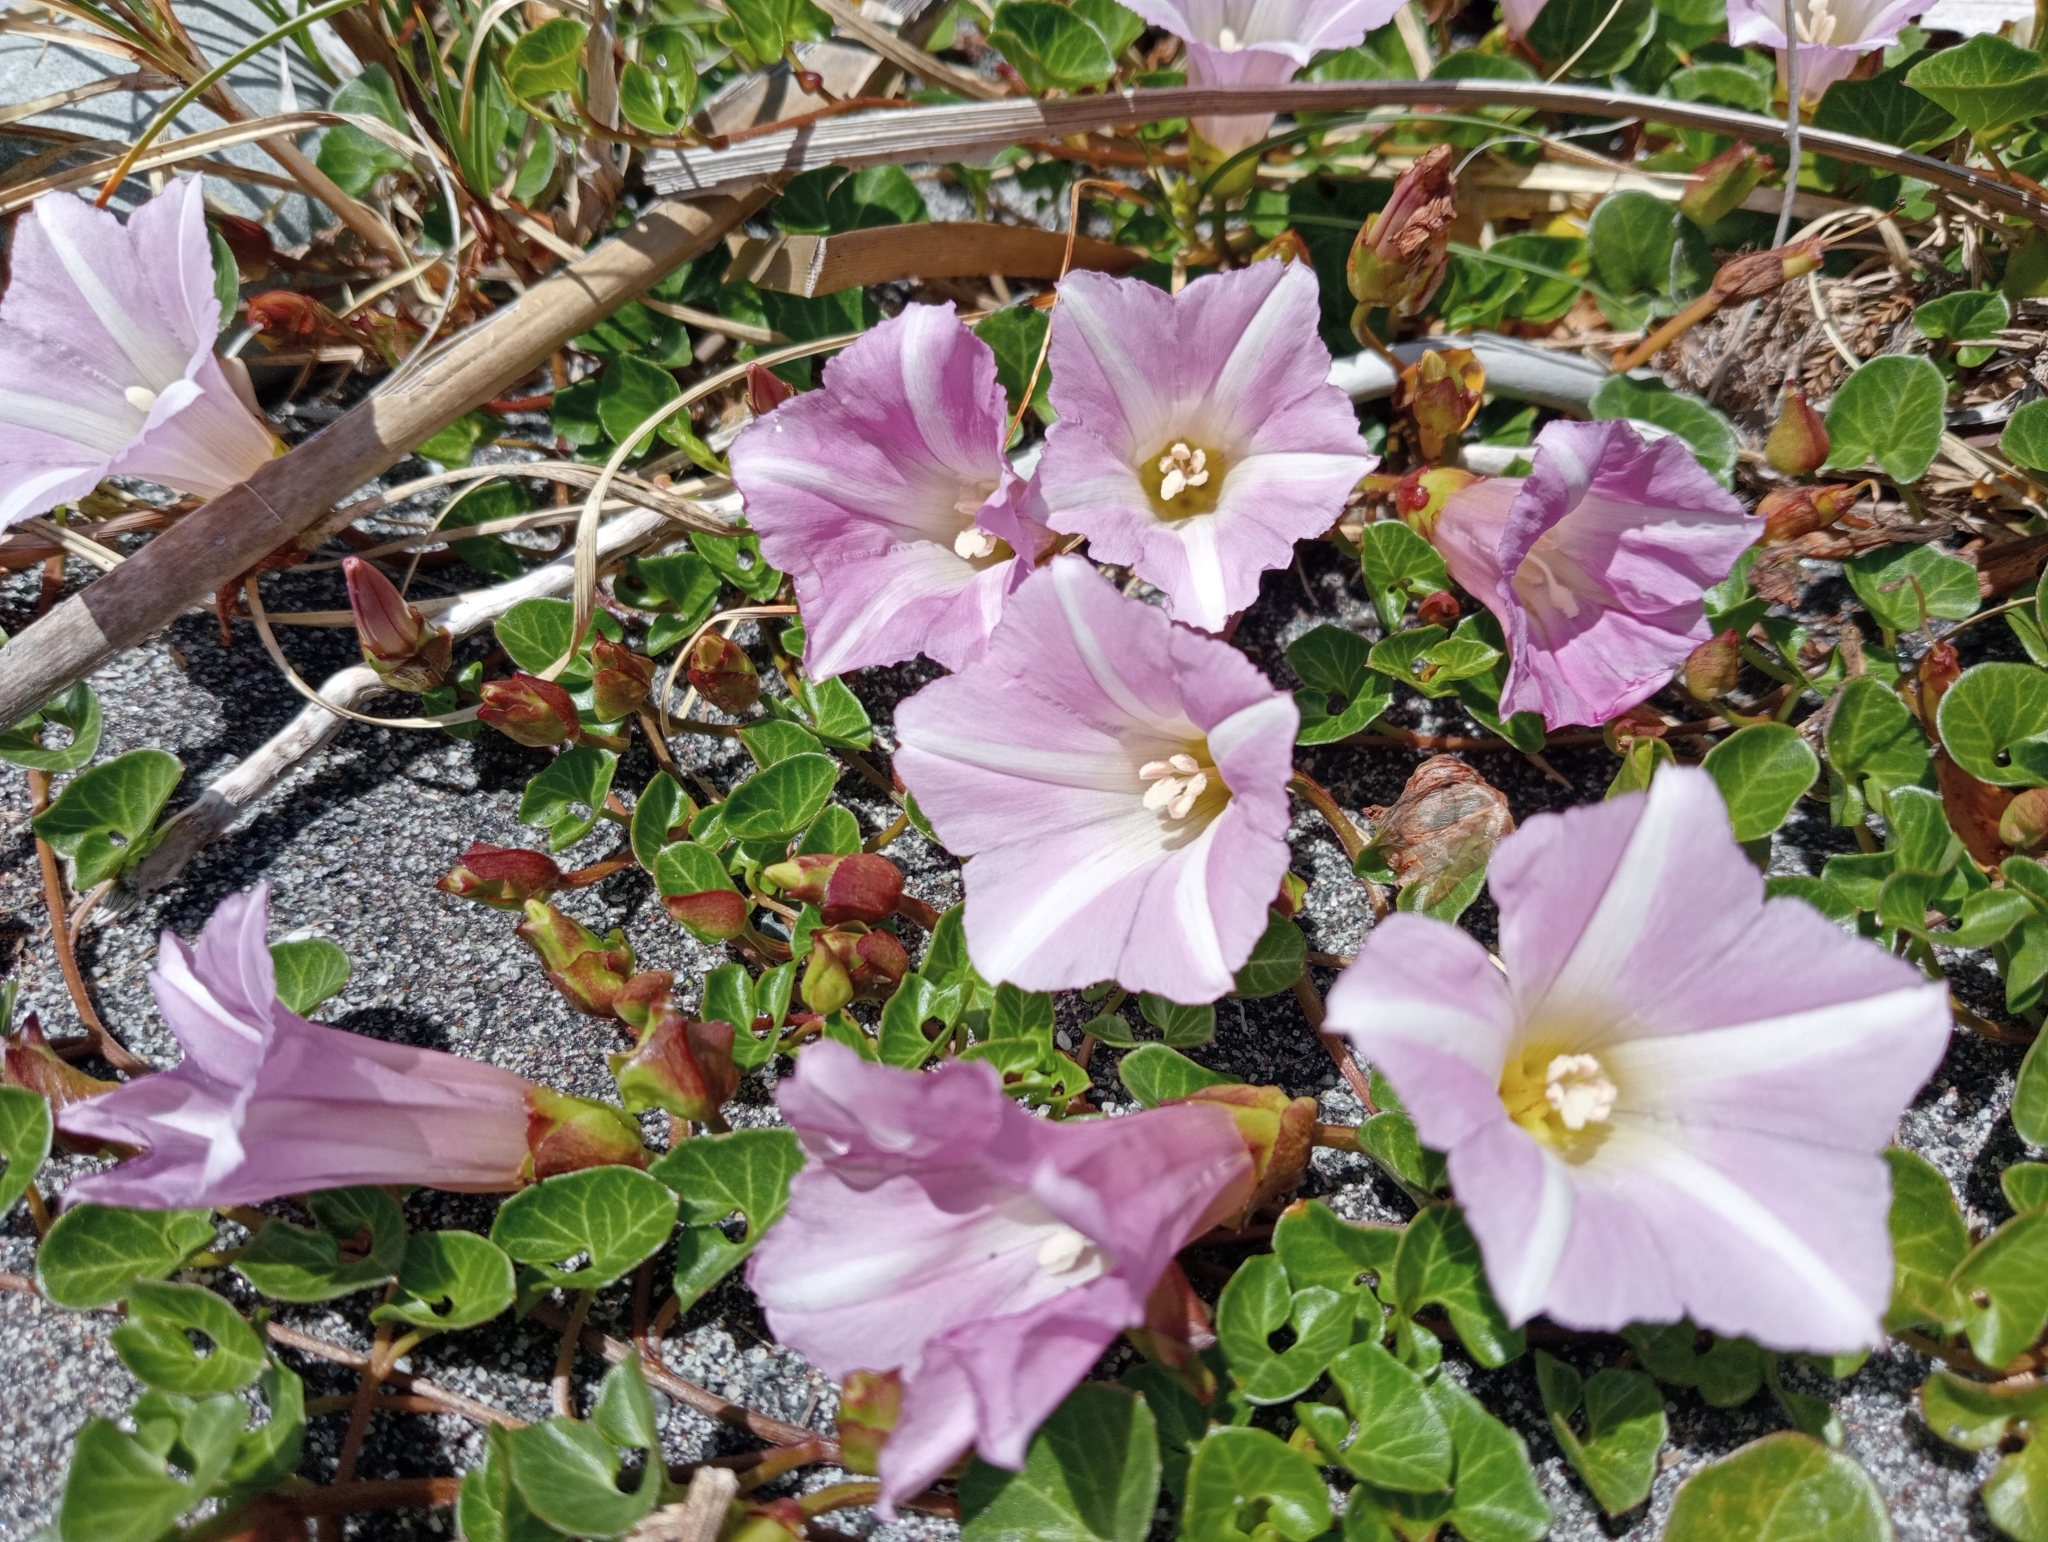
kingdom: Plantae
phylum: Tracheophyta
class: Magnoliopsida
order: Solanales
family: Convolvulaceae
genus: Calystegia
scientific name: Calystegia soldanella
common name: Sea bindweed
